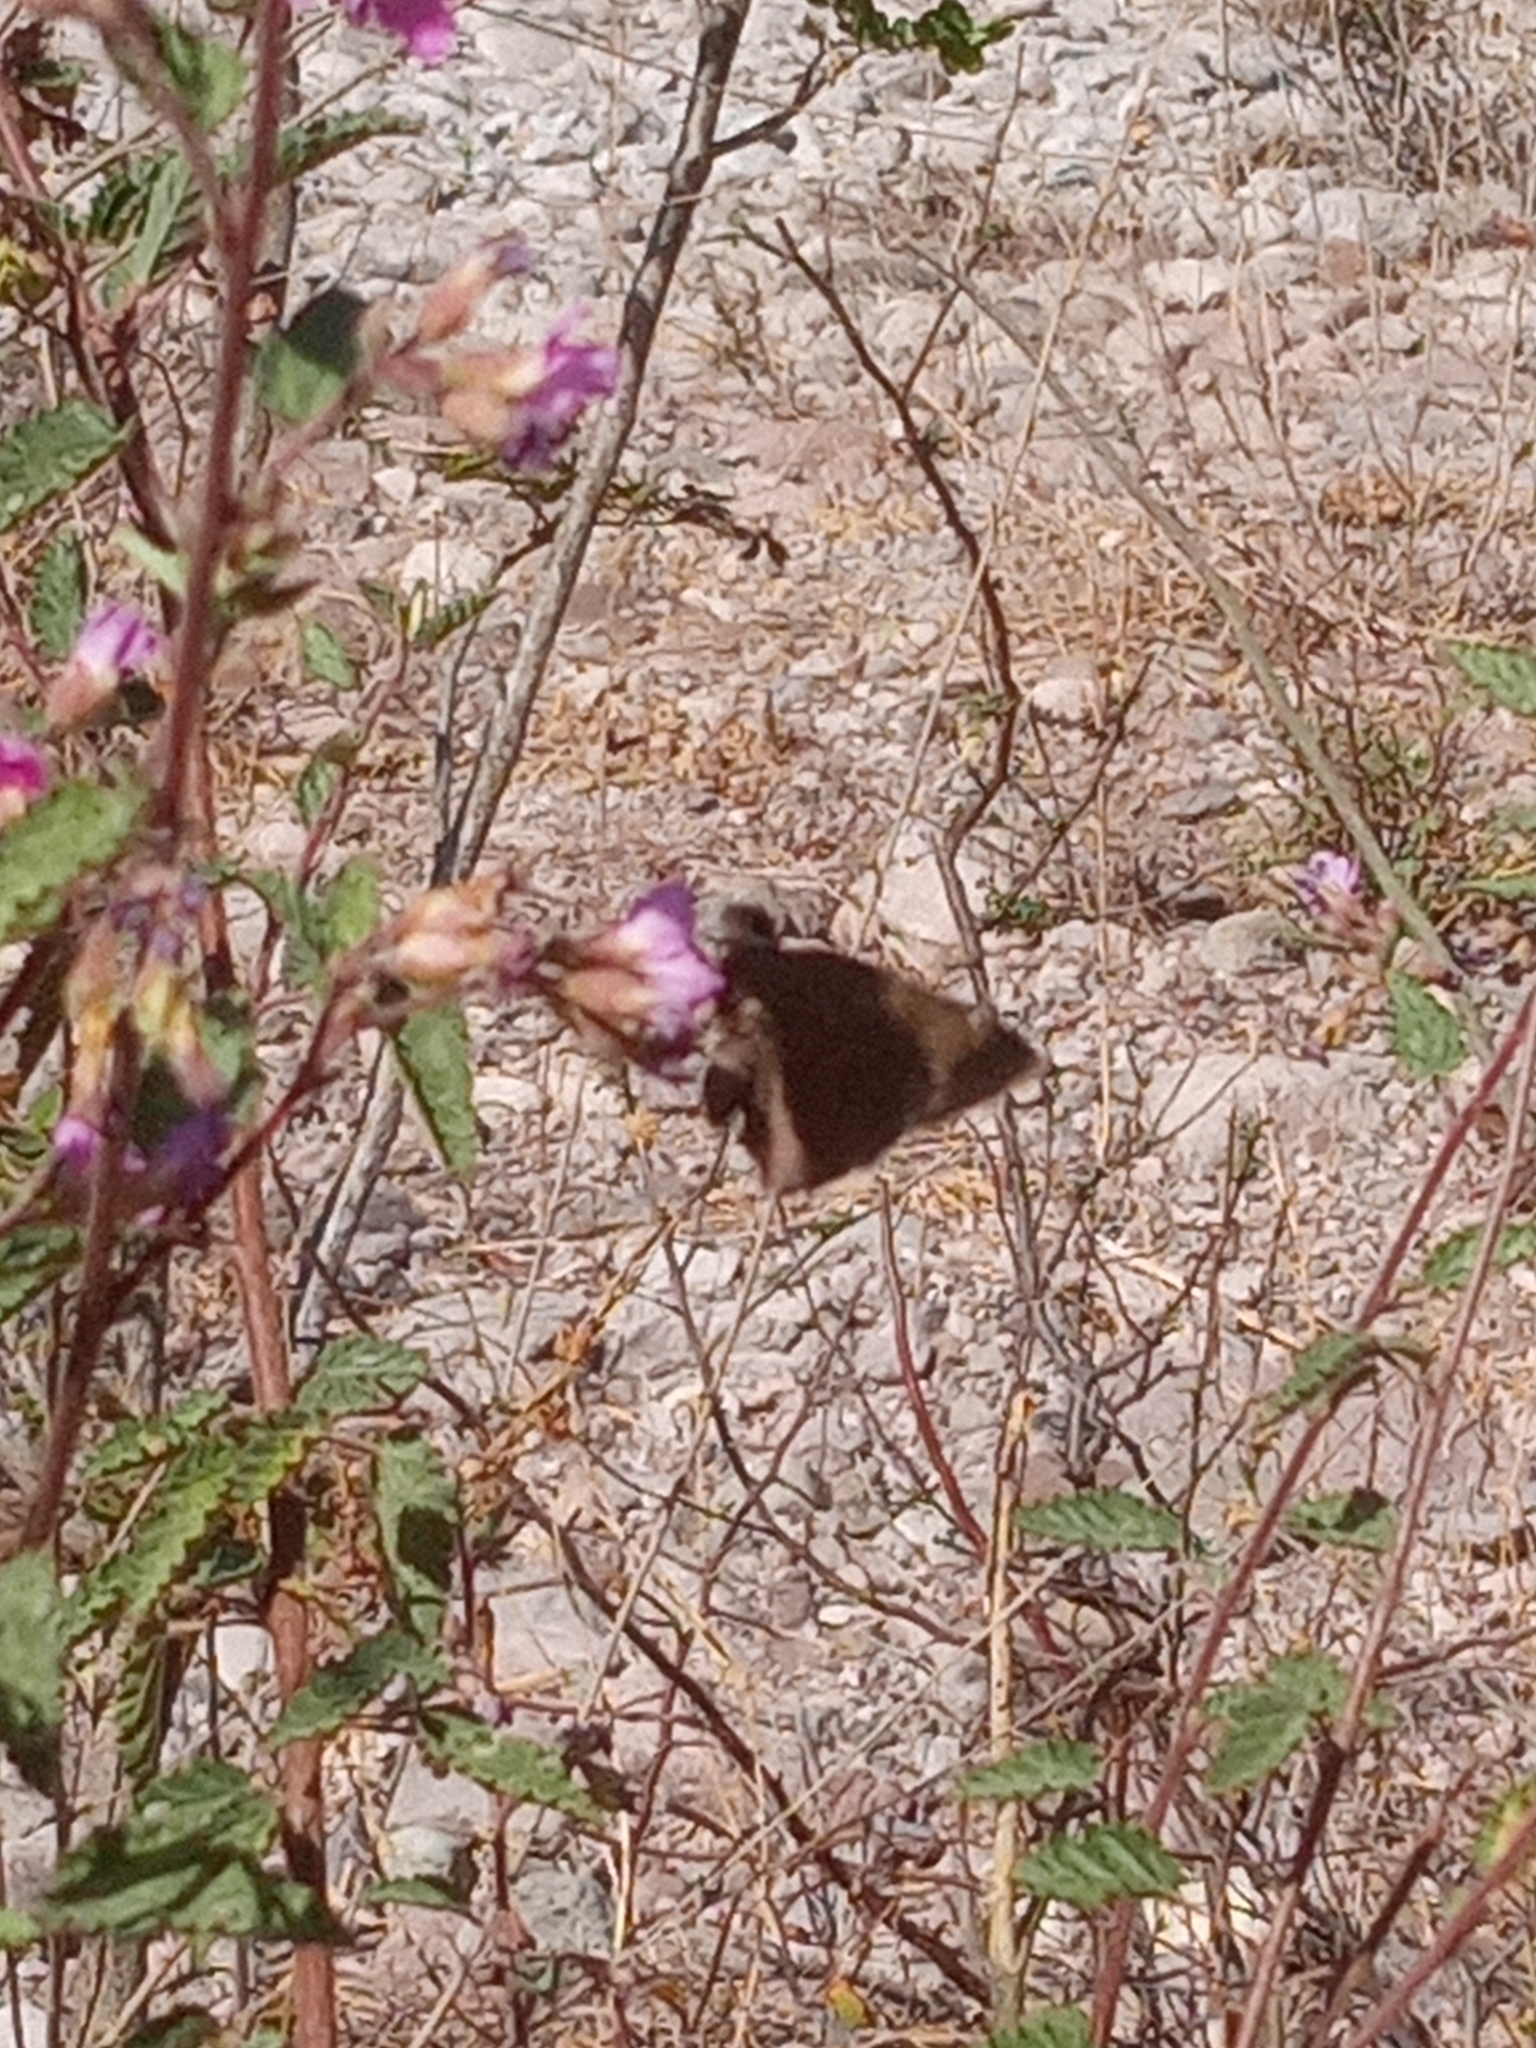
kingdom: Plantae
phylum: Tracheophyta
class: Magnoliopsida
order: Malvales
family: Malvaceae
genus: Melochia
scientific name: Melochia tomentosa
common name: Black torch
